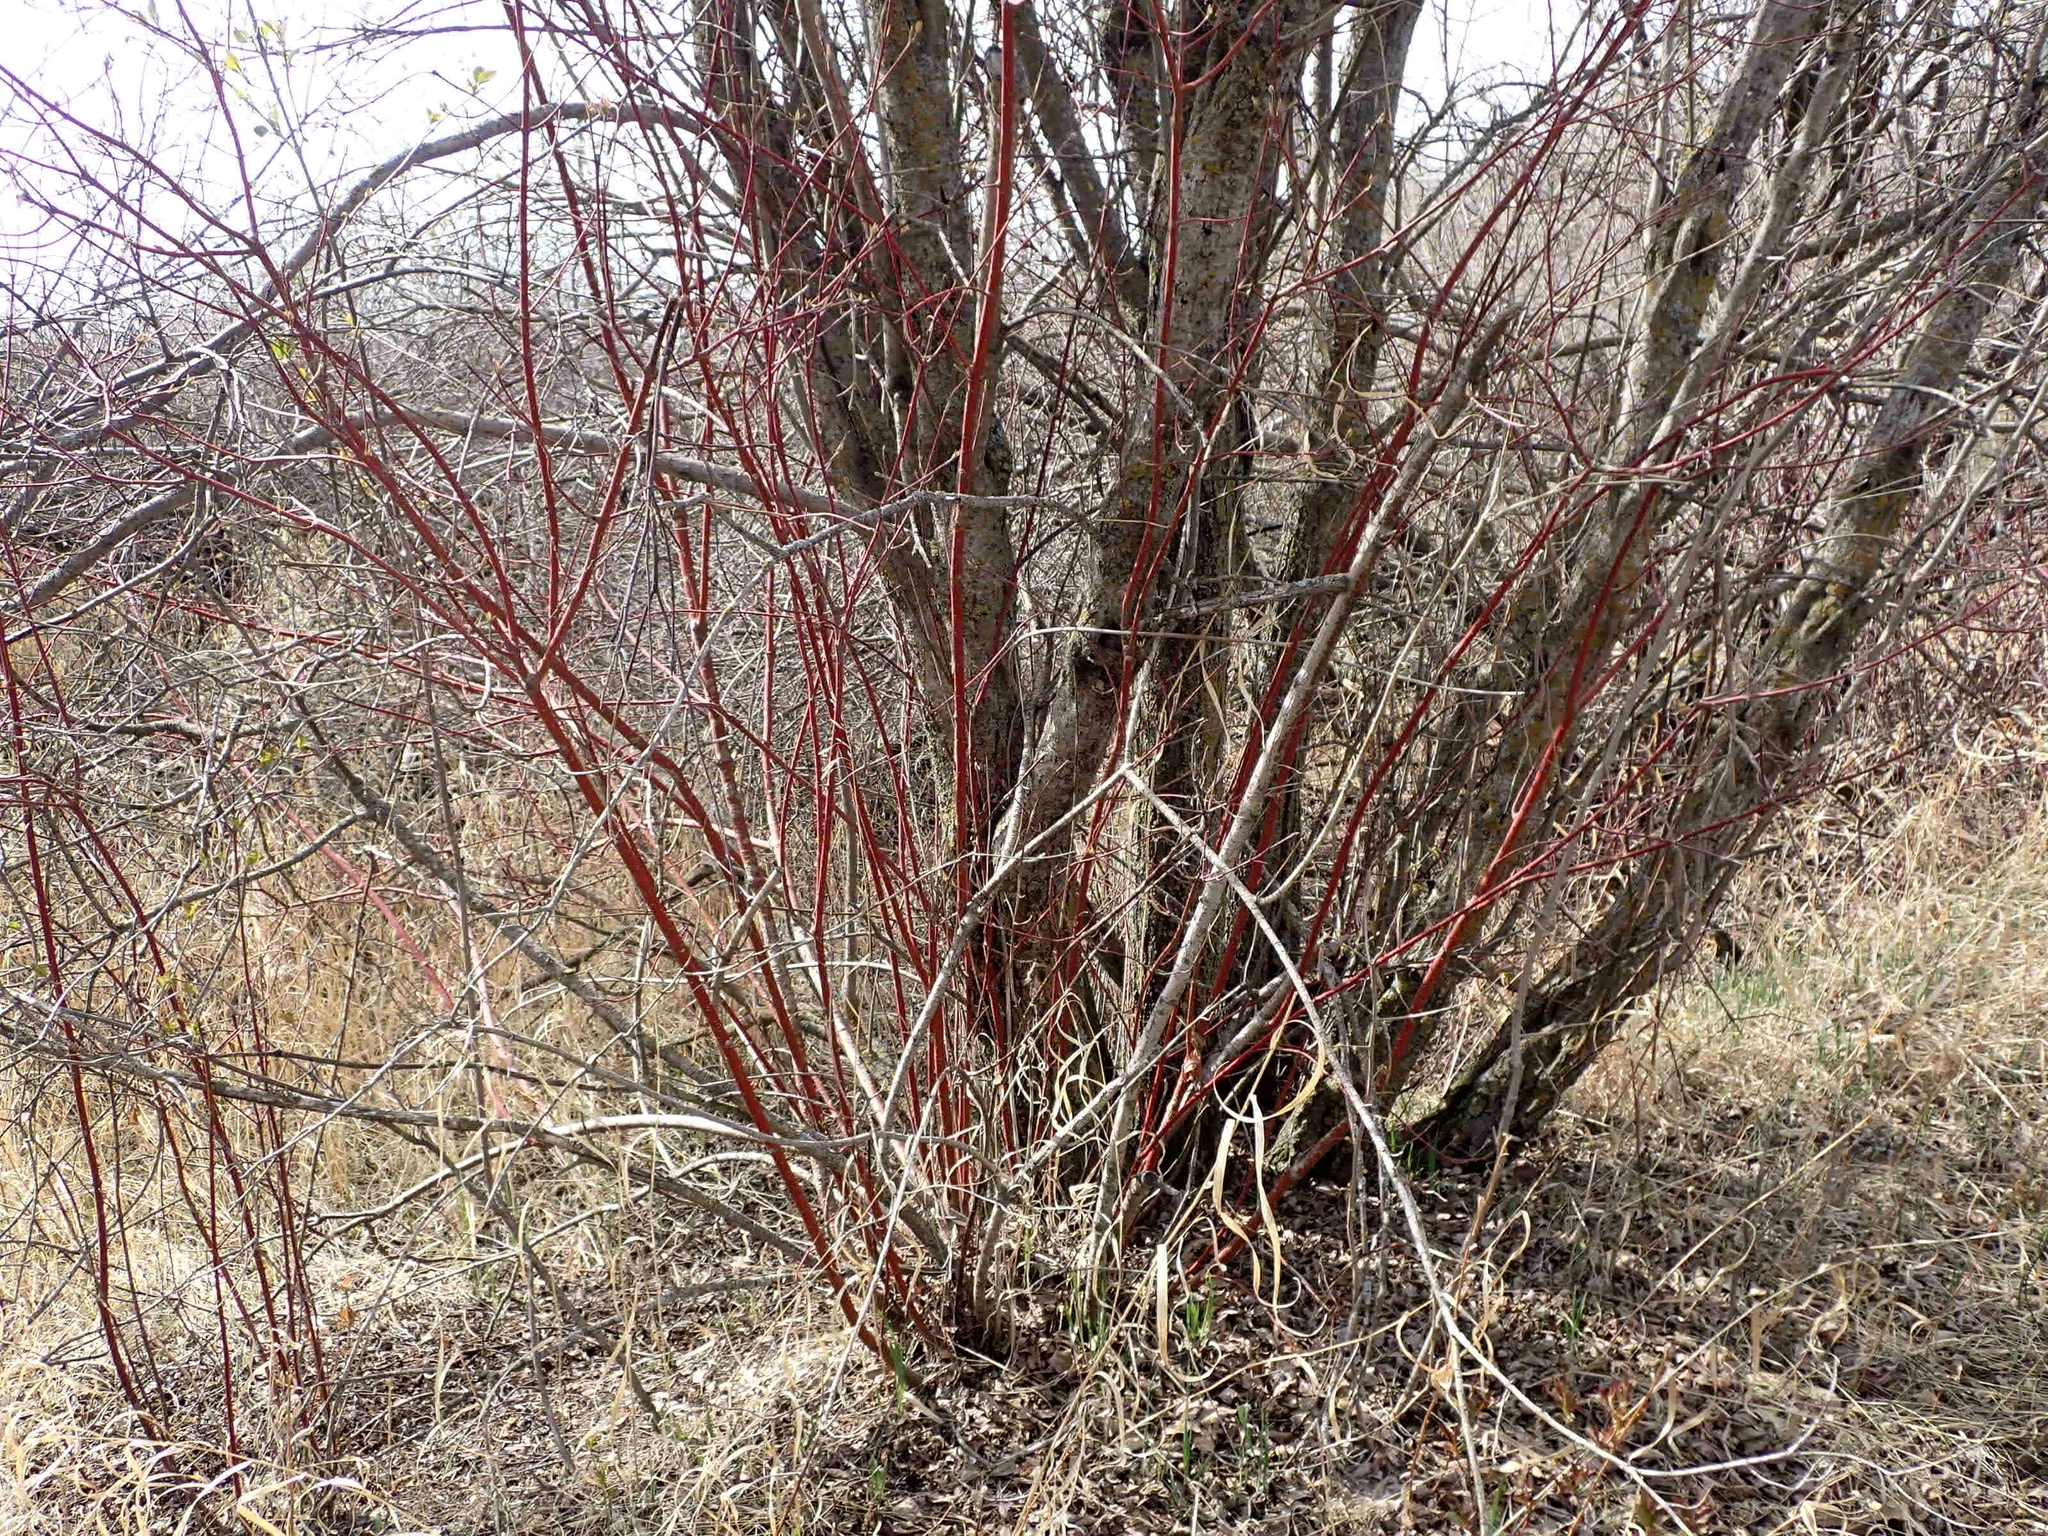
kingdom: Plantae
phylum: Tracheophyta
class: Magnoliopsida
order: Cornales
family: Cornaceae
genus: Cornus
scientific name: Cornus sericea
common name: Red-osier dogwood
